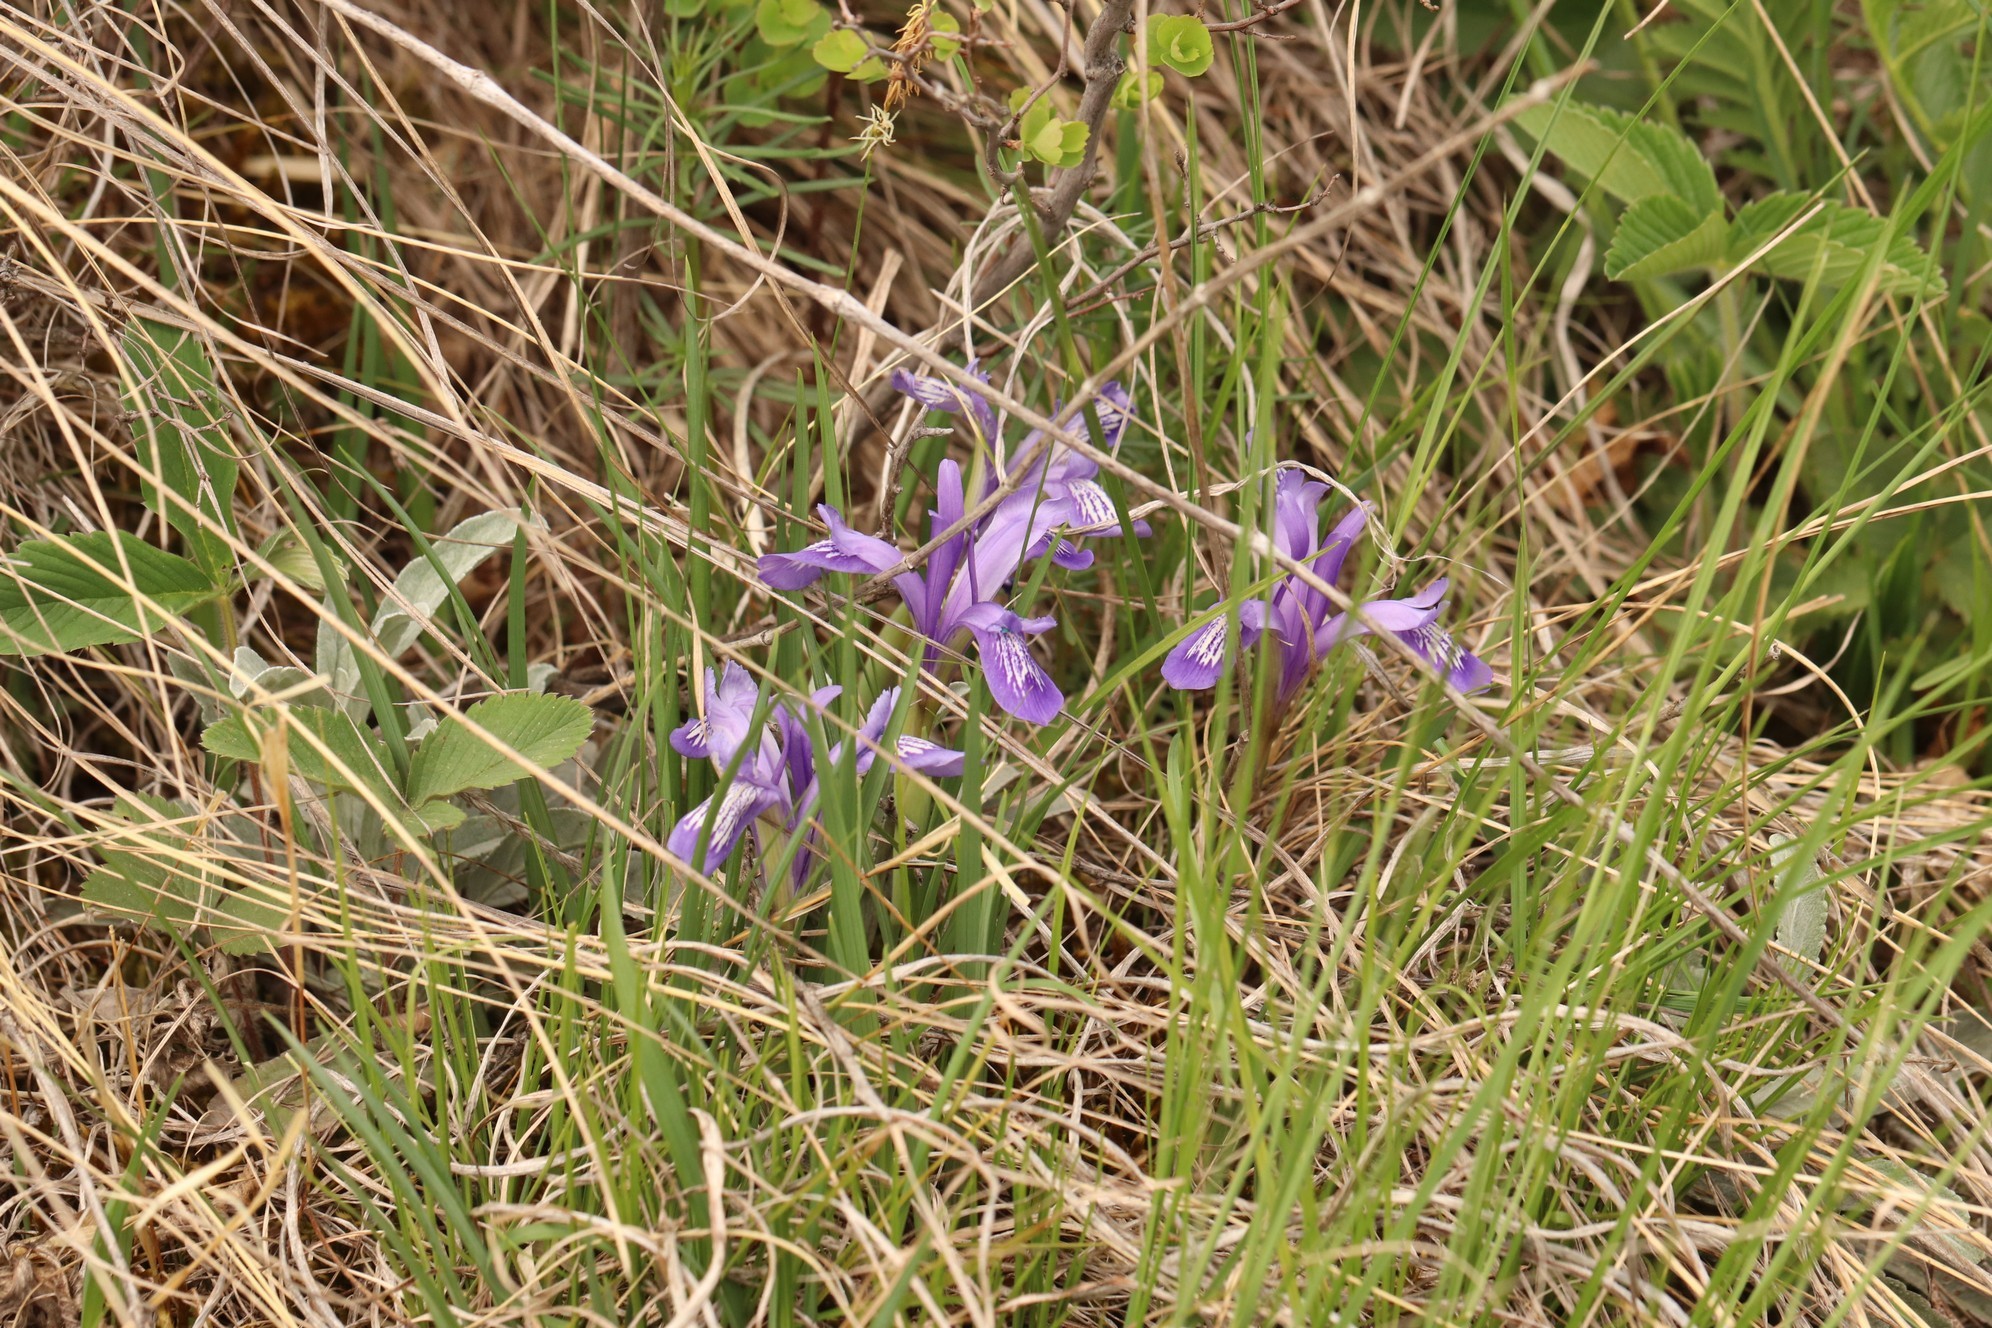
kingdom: Plantae
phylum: Tracheophyta
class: Liliopsida
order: Asparagales
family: Iridaceae
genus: Iris
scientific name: Iris ruthenica
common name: Purple-bract iris
